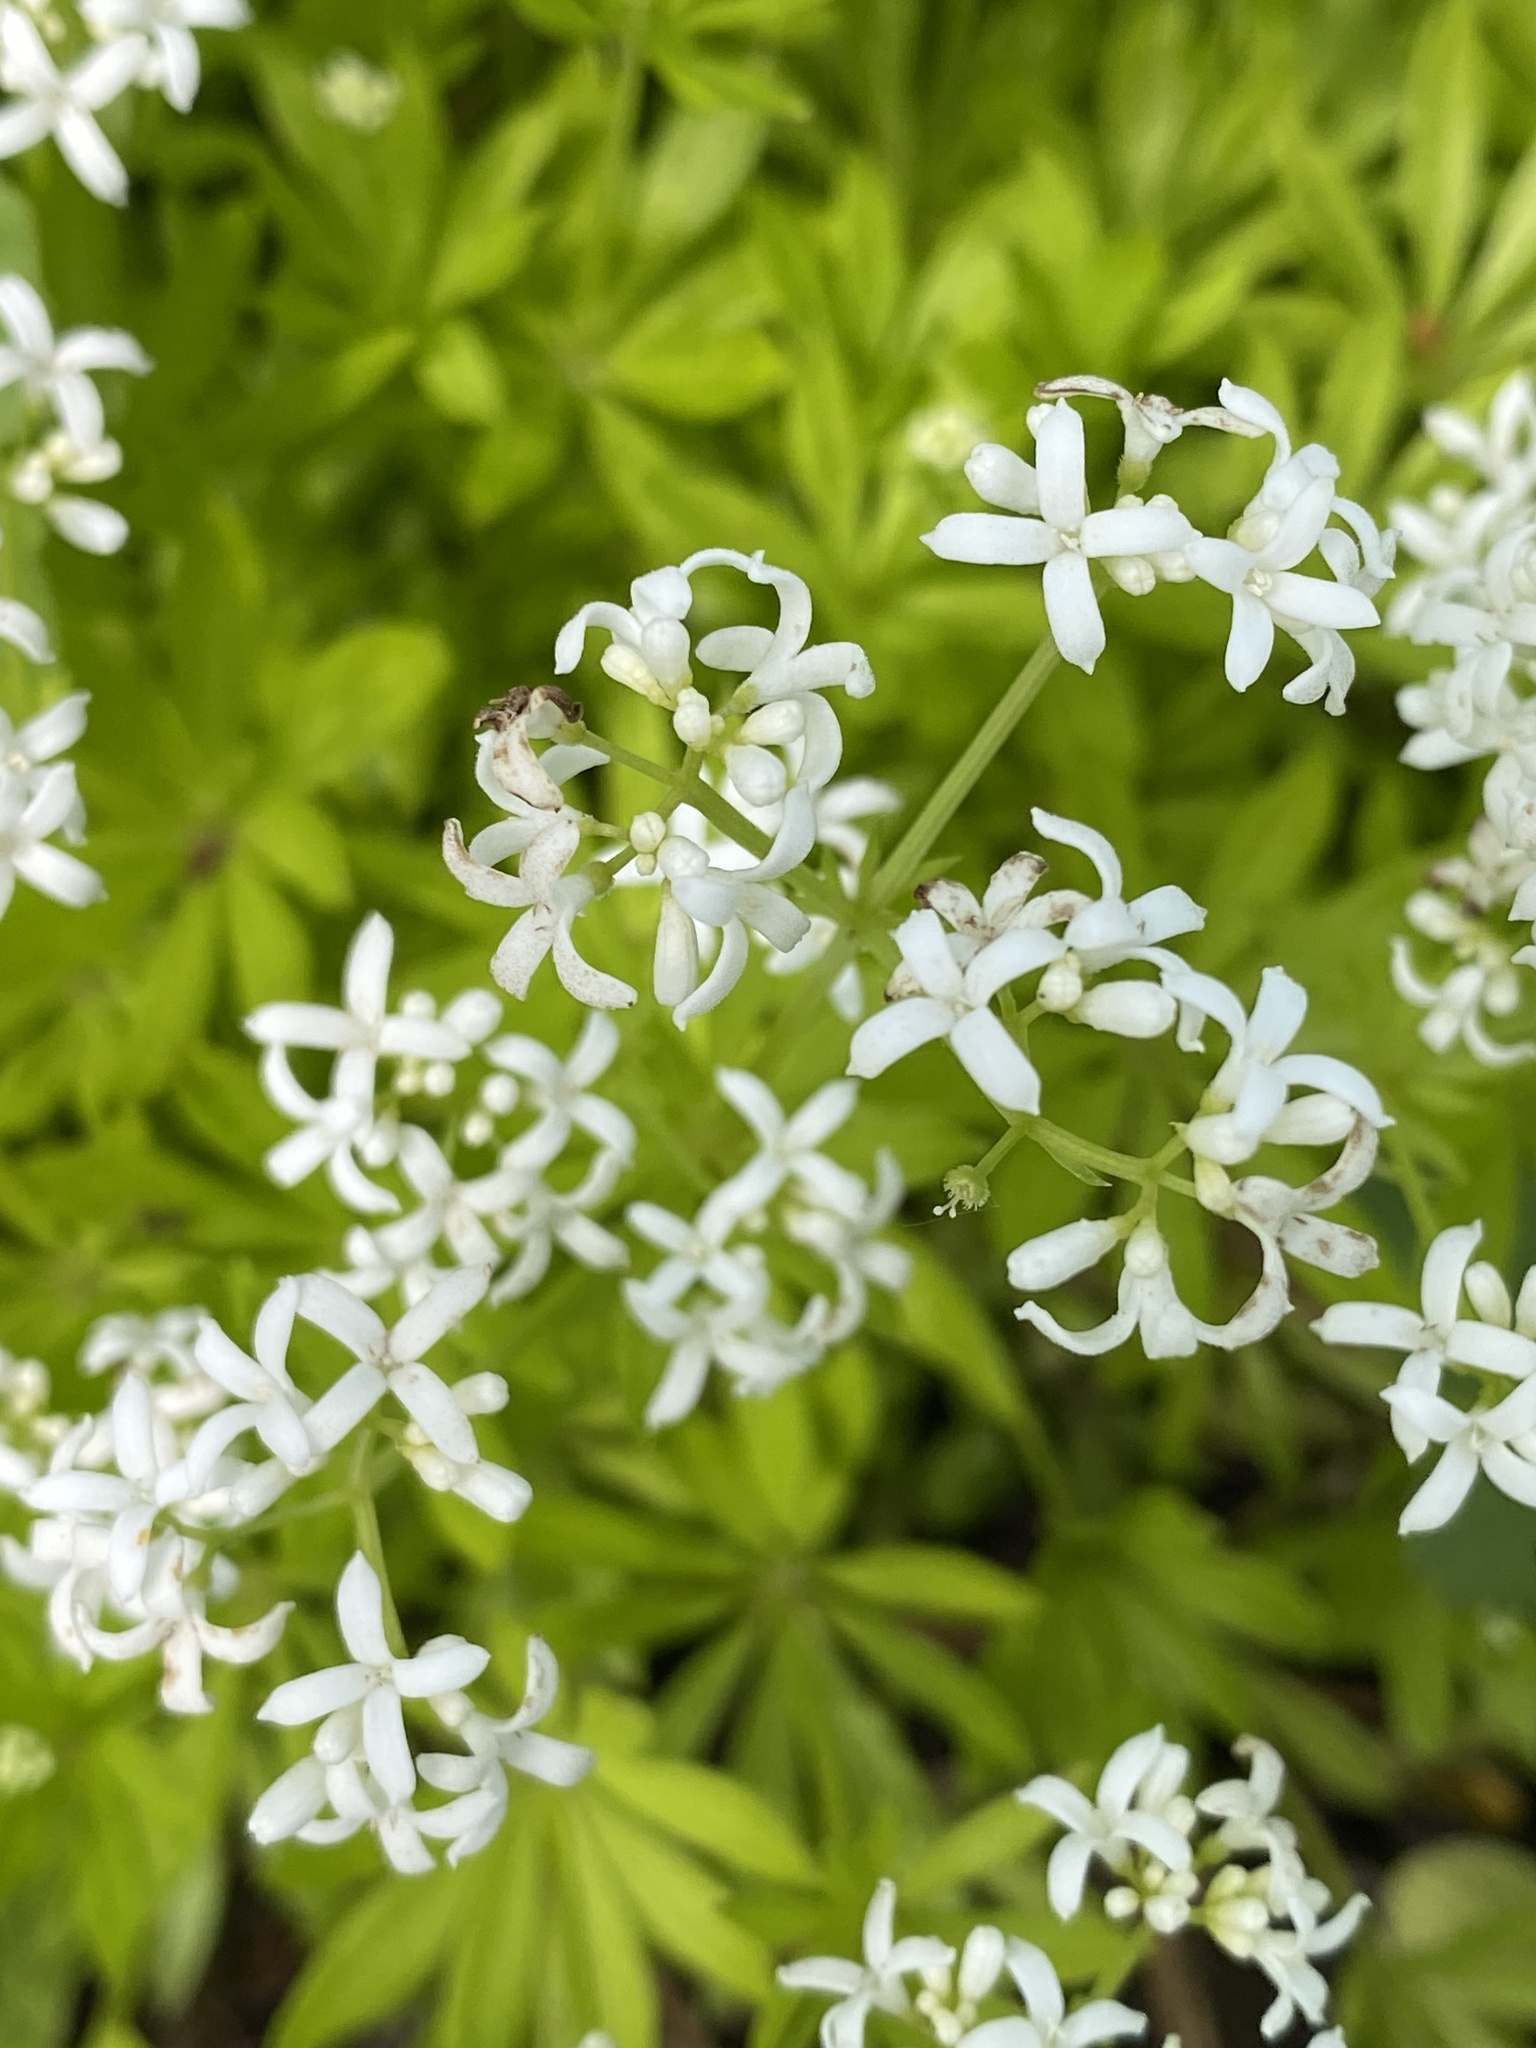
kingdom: Plantae
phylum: Tracheophyta
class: Magnoliopsida
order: Gentianales
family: Rubiaceae
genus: Galium
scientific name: Galium odoratum
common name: Sweet woodruff
